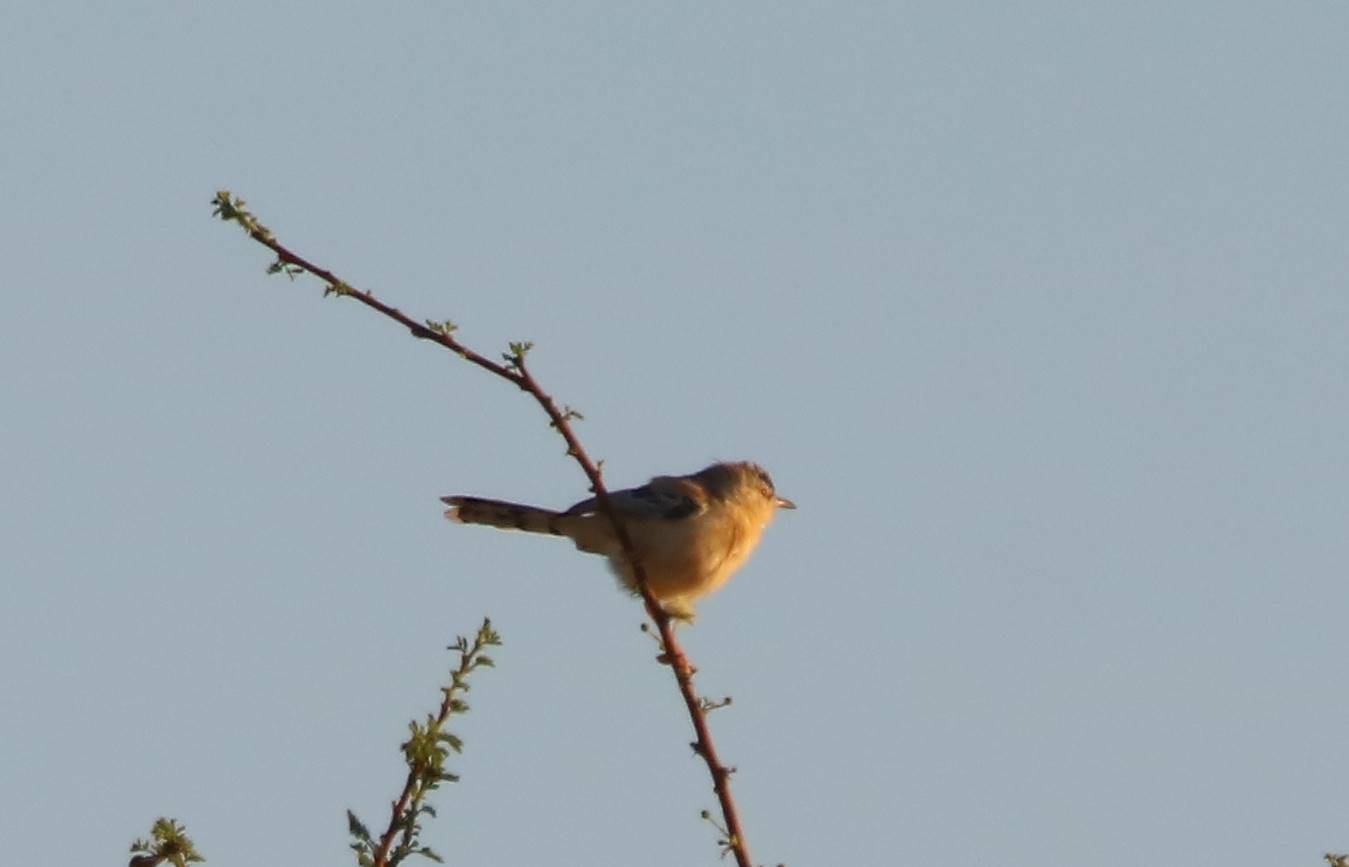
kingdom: Animalia
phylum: Chordata
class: Aves
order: Passeriformes
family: Cisticolidae
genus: Spiloptila
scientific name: Spiloptila clamans
